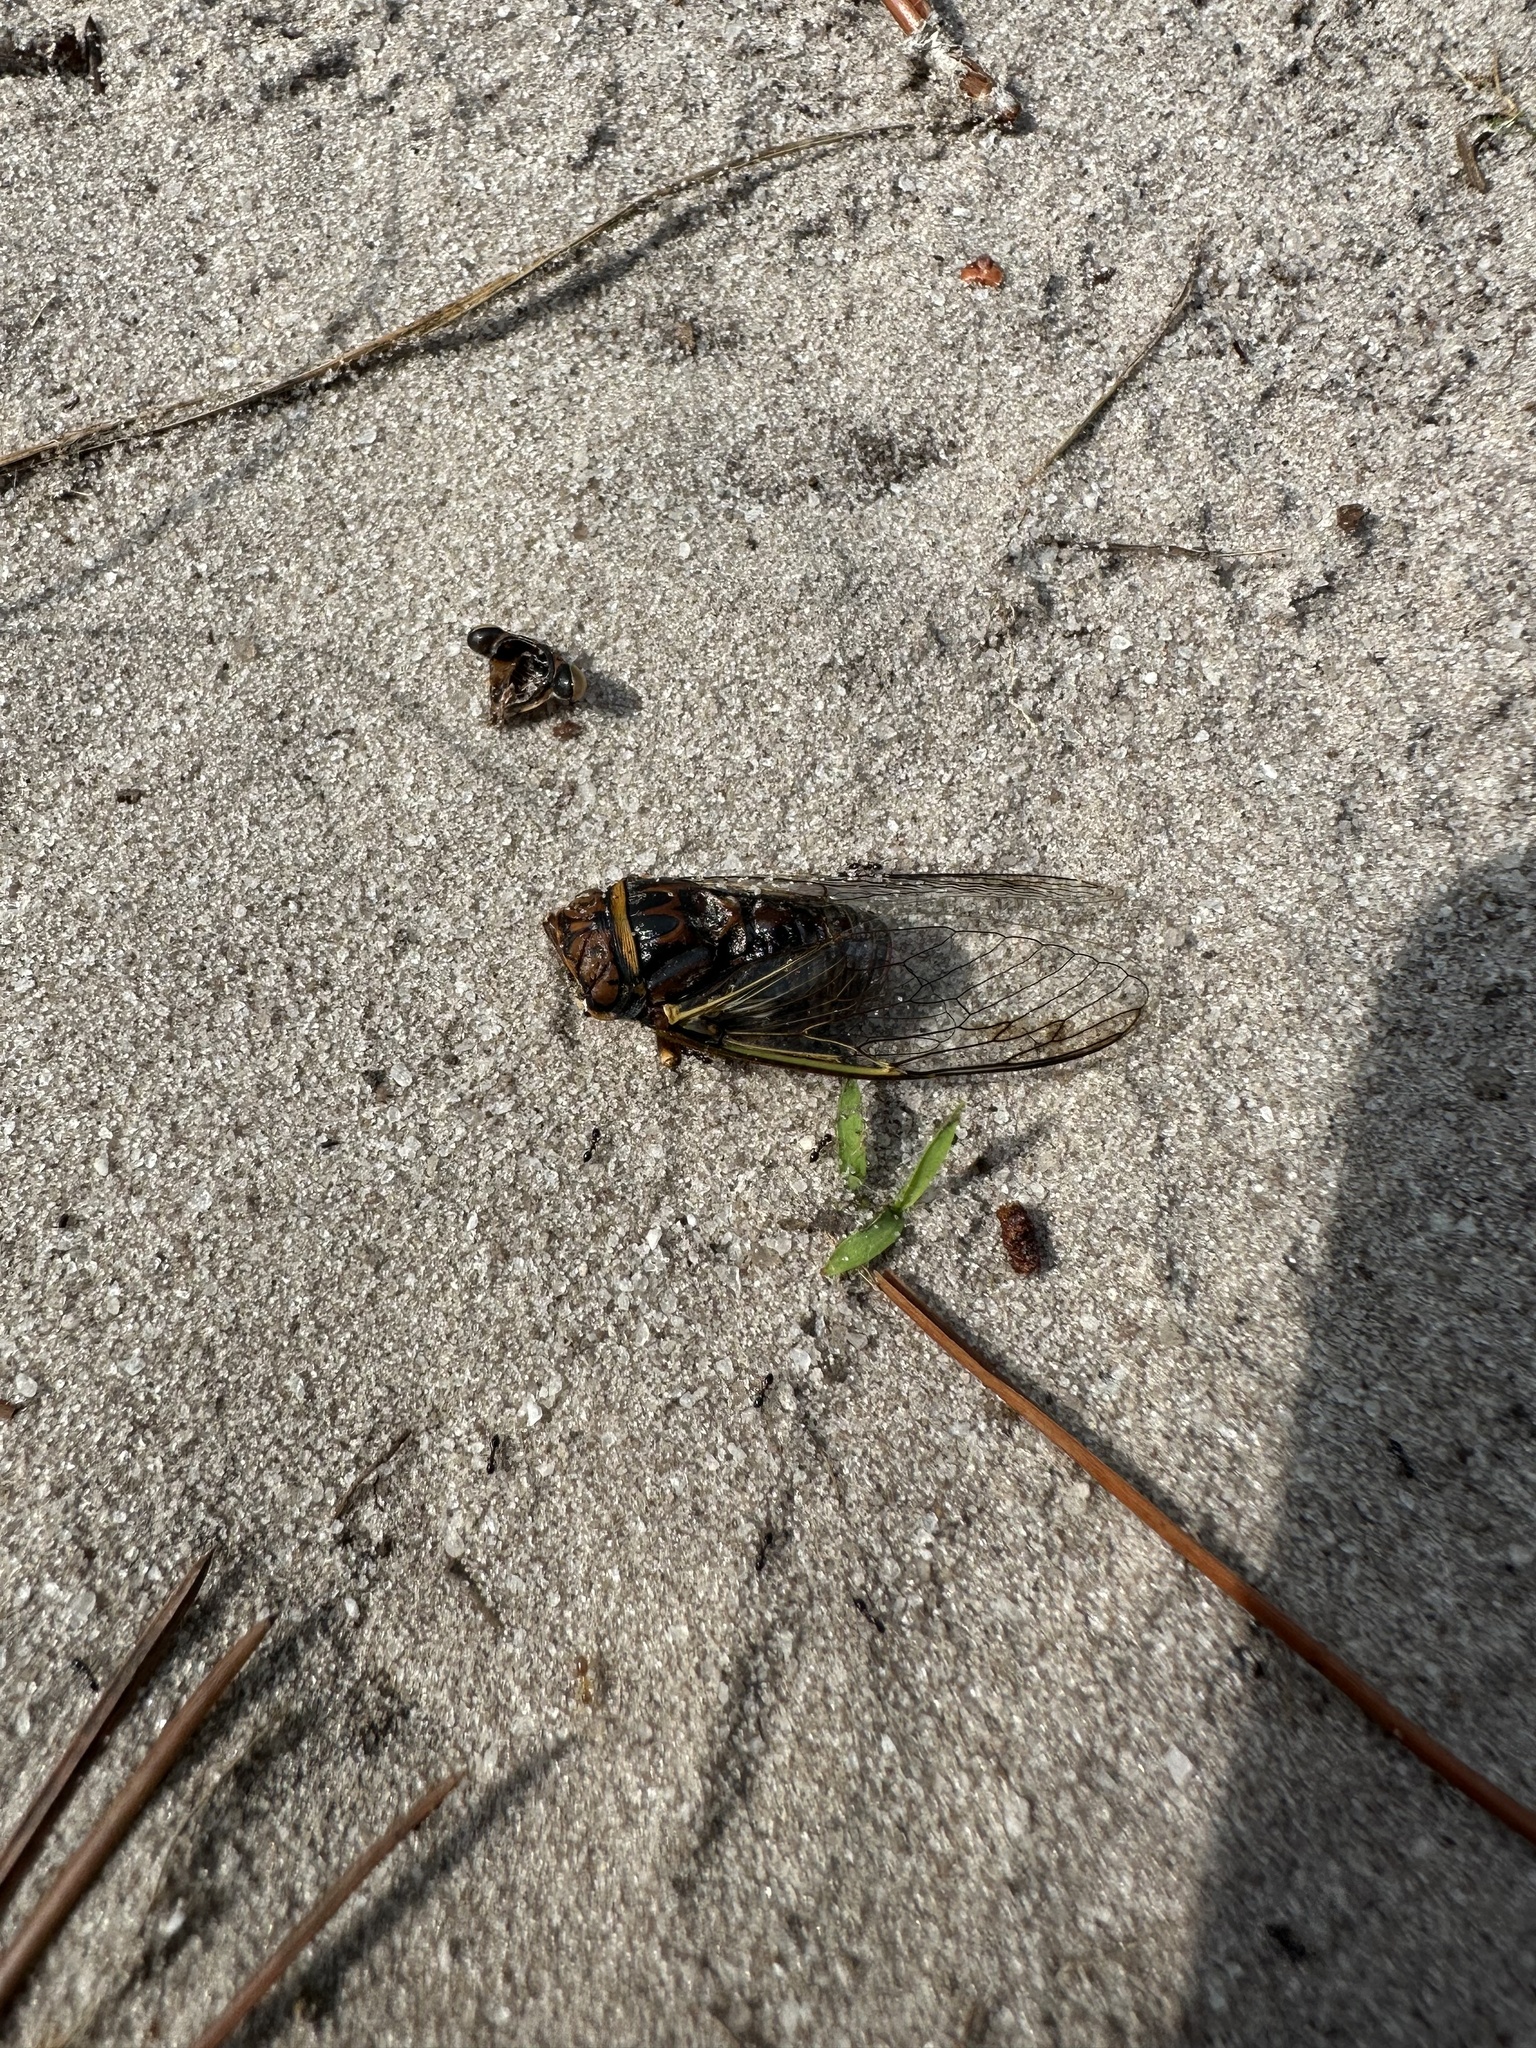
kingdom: Animalia
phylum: Arthropoda
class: Insecta
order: Hemiptera
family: Cicadidae
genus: Diceroprocta
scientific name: Diceroprocta olympusa
